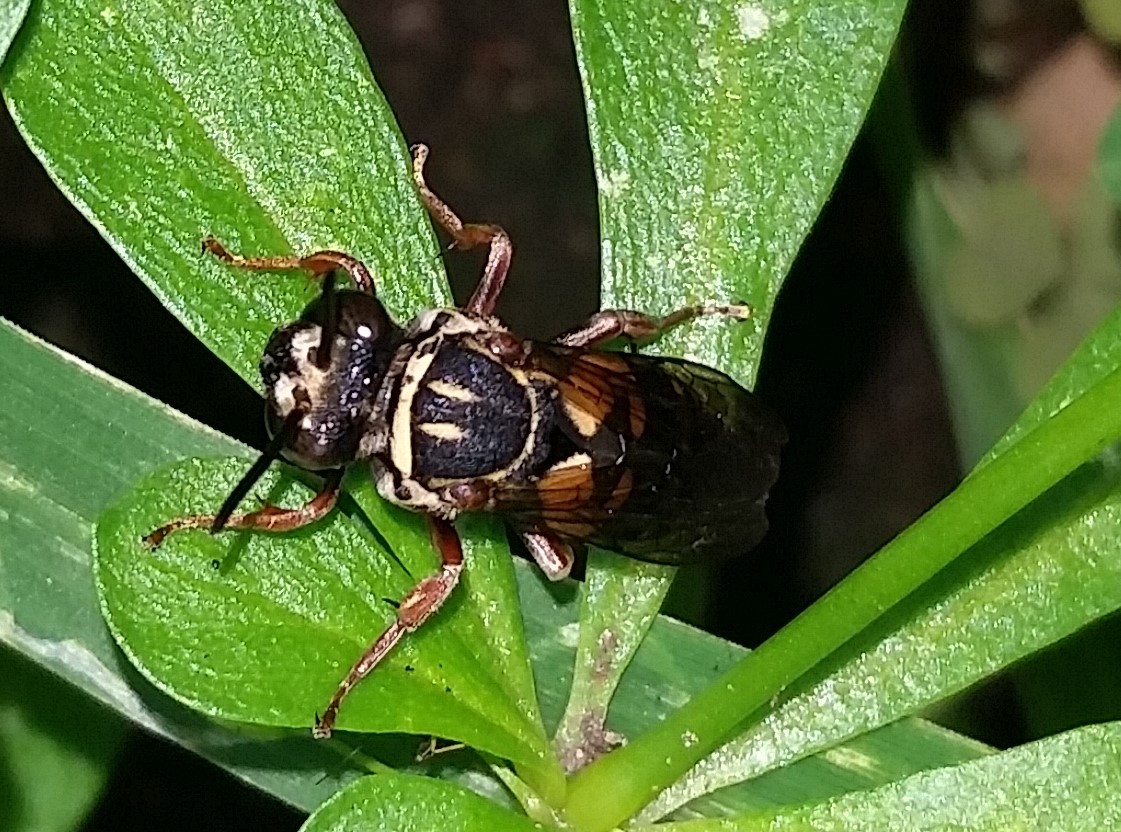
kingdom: Animalia
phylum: Arthropoda
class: Insecta
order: Hymenoptera
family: Apidae
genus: Triepeolus
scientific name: Triepeolus lunatus
